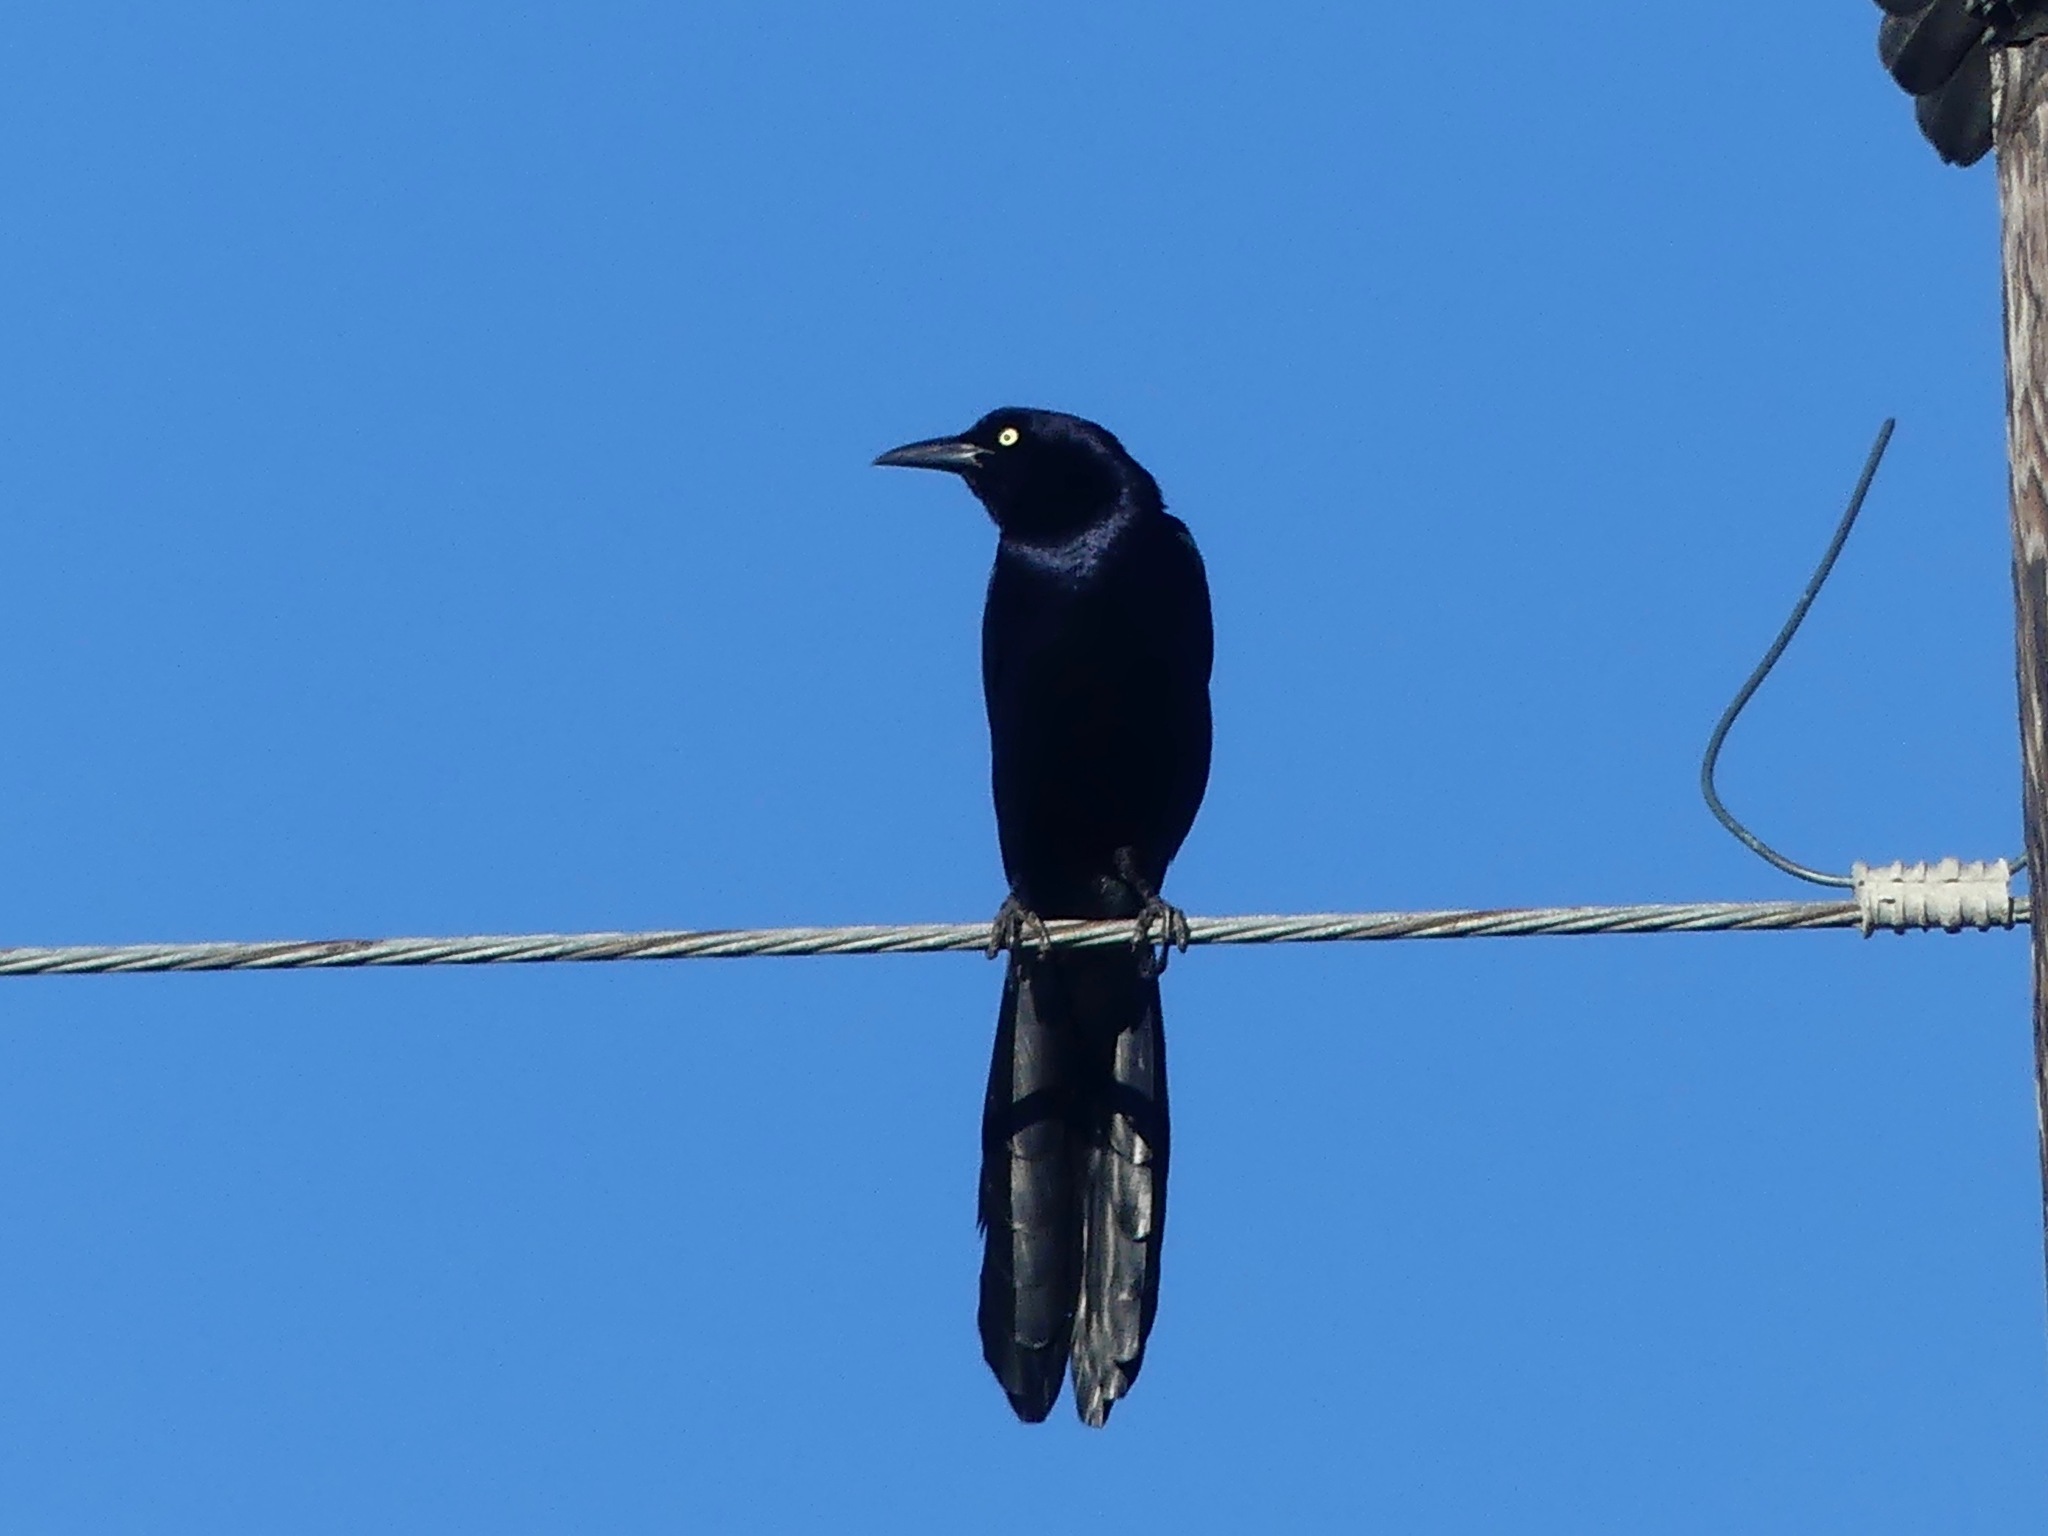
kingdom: Animalia
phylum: Chordata
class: Aves
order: Passeriformes
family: Icteridae
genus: Quiscalus
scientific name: Quiscalus mexicanus
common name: Great-tailed grackle
